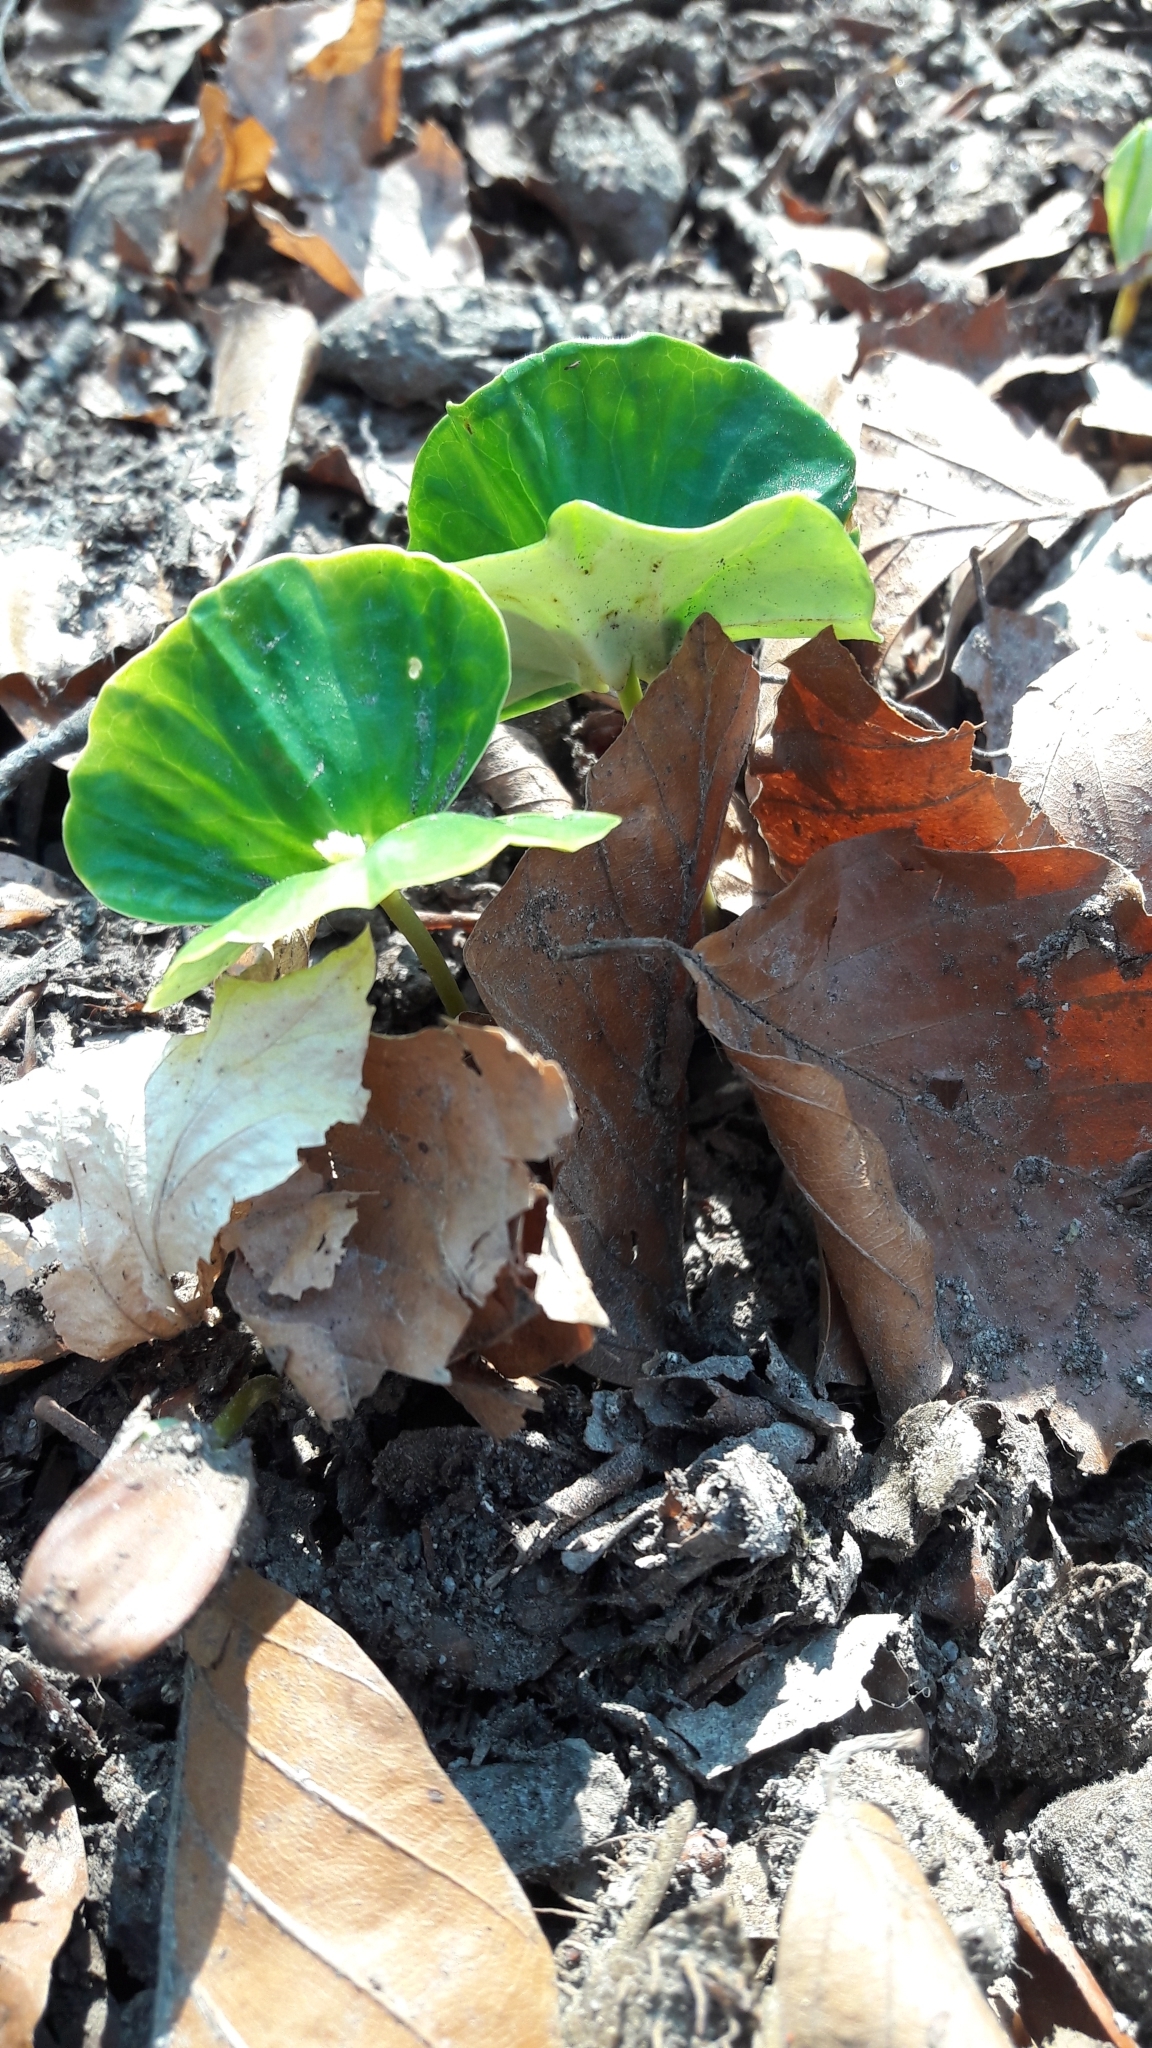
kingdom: Plantae
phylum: Tracheophyta
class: Magnoliopsida
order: Fagales
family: Fagaceae
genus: Fagus
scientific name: Fagus sylvatica
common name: Beech
